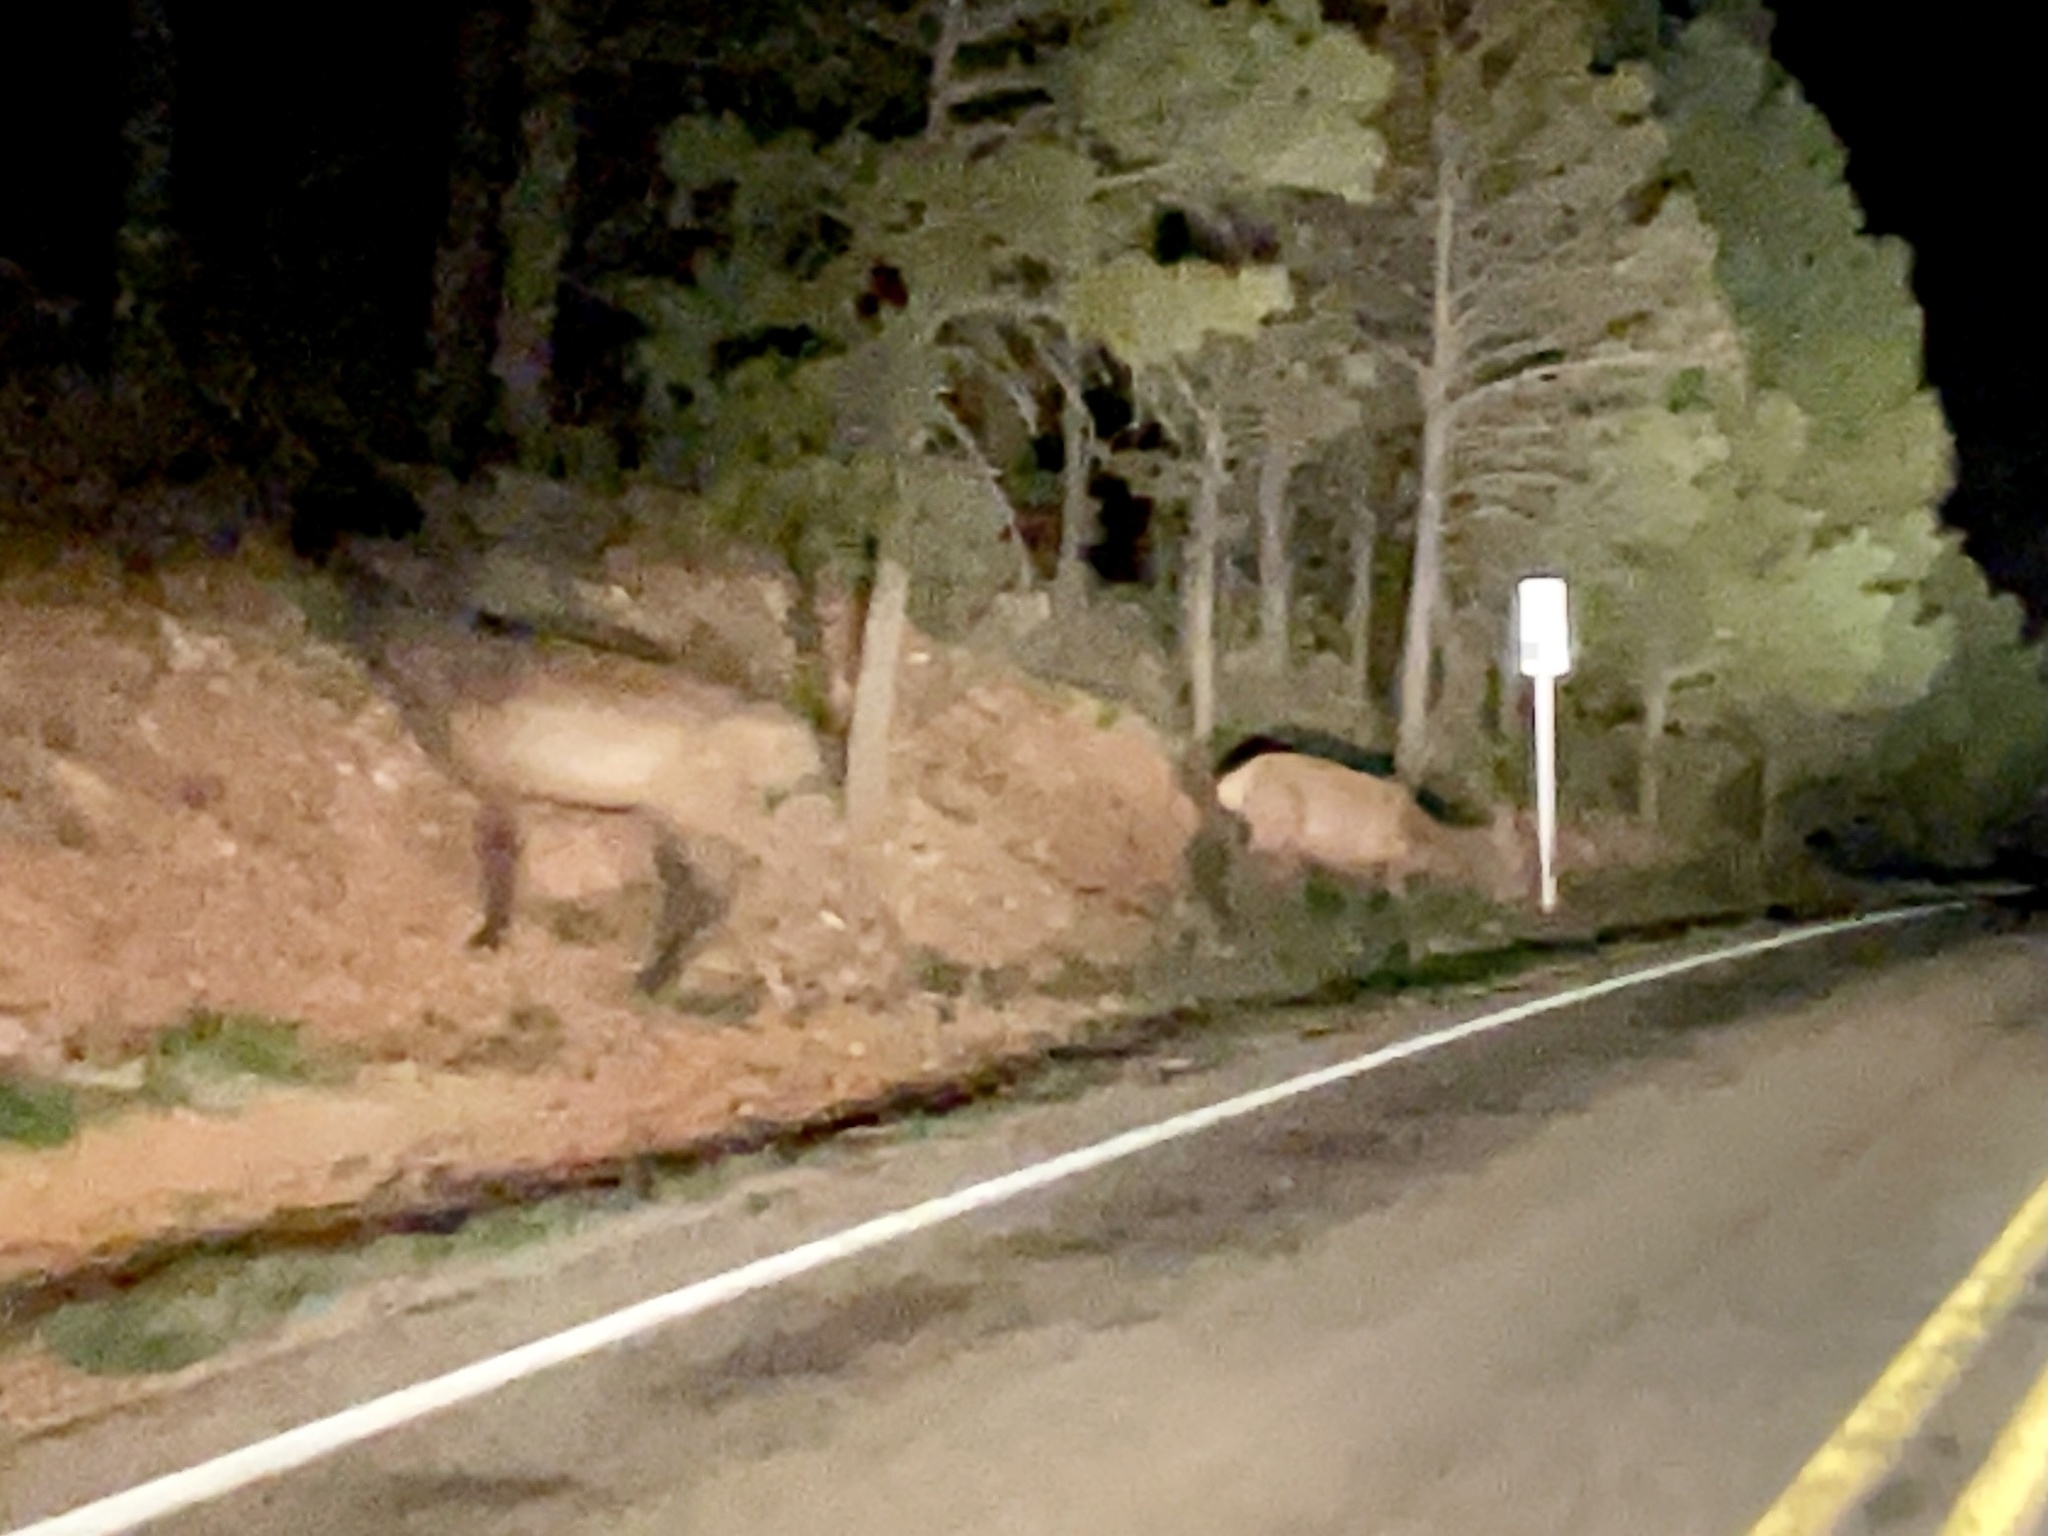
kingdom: Animalia
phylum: Chordata
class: Mammalia
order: Artiodactyla
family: Cervidae
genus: Cervus
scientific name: Cervus elaphus
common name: Red deer
